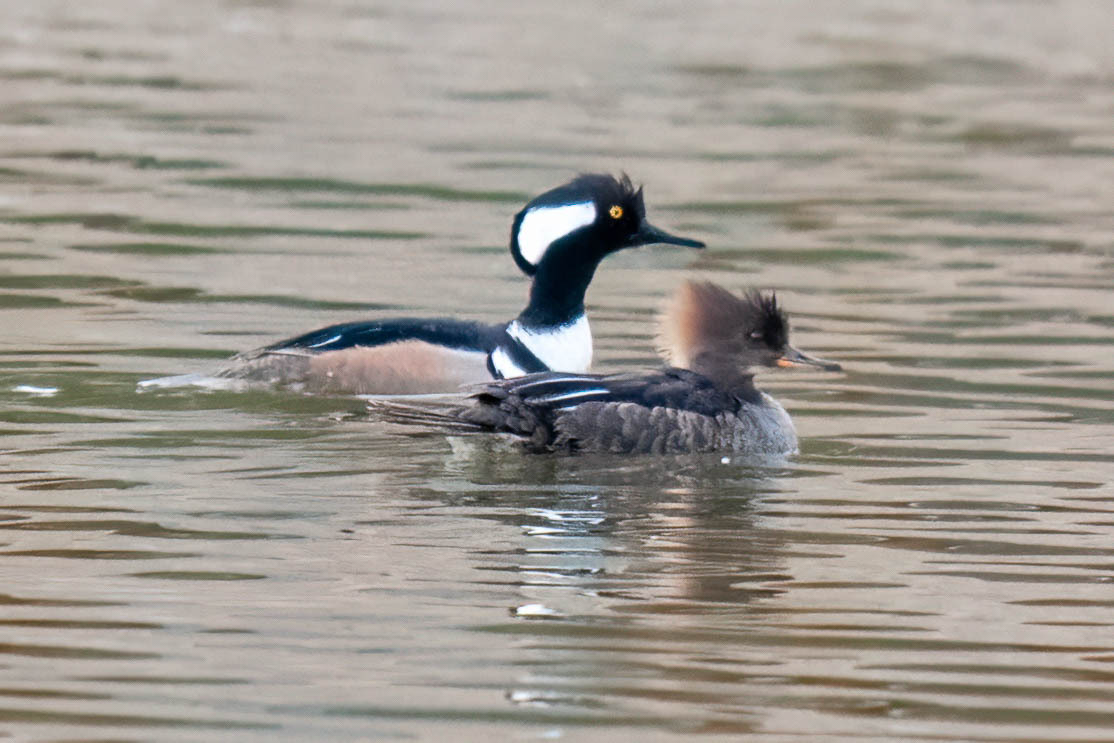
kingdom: Animalia
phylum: Chordata
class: Aves
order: Anseriformes
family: Anatidae
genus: Lophodytes
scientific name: Lophodytes cucullatus
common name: Hooded merganser
